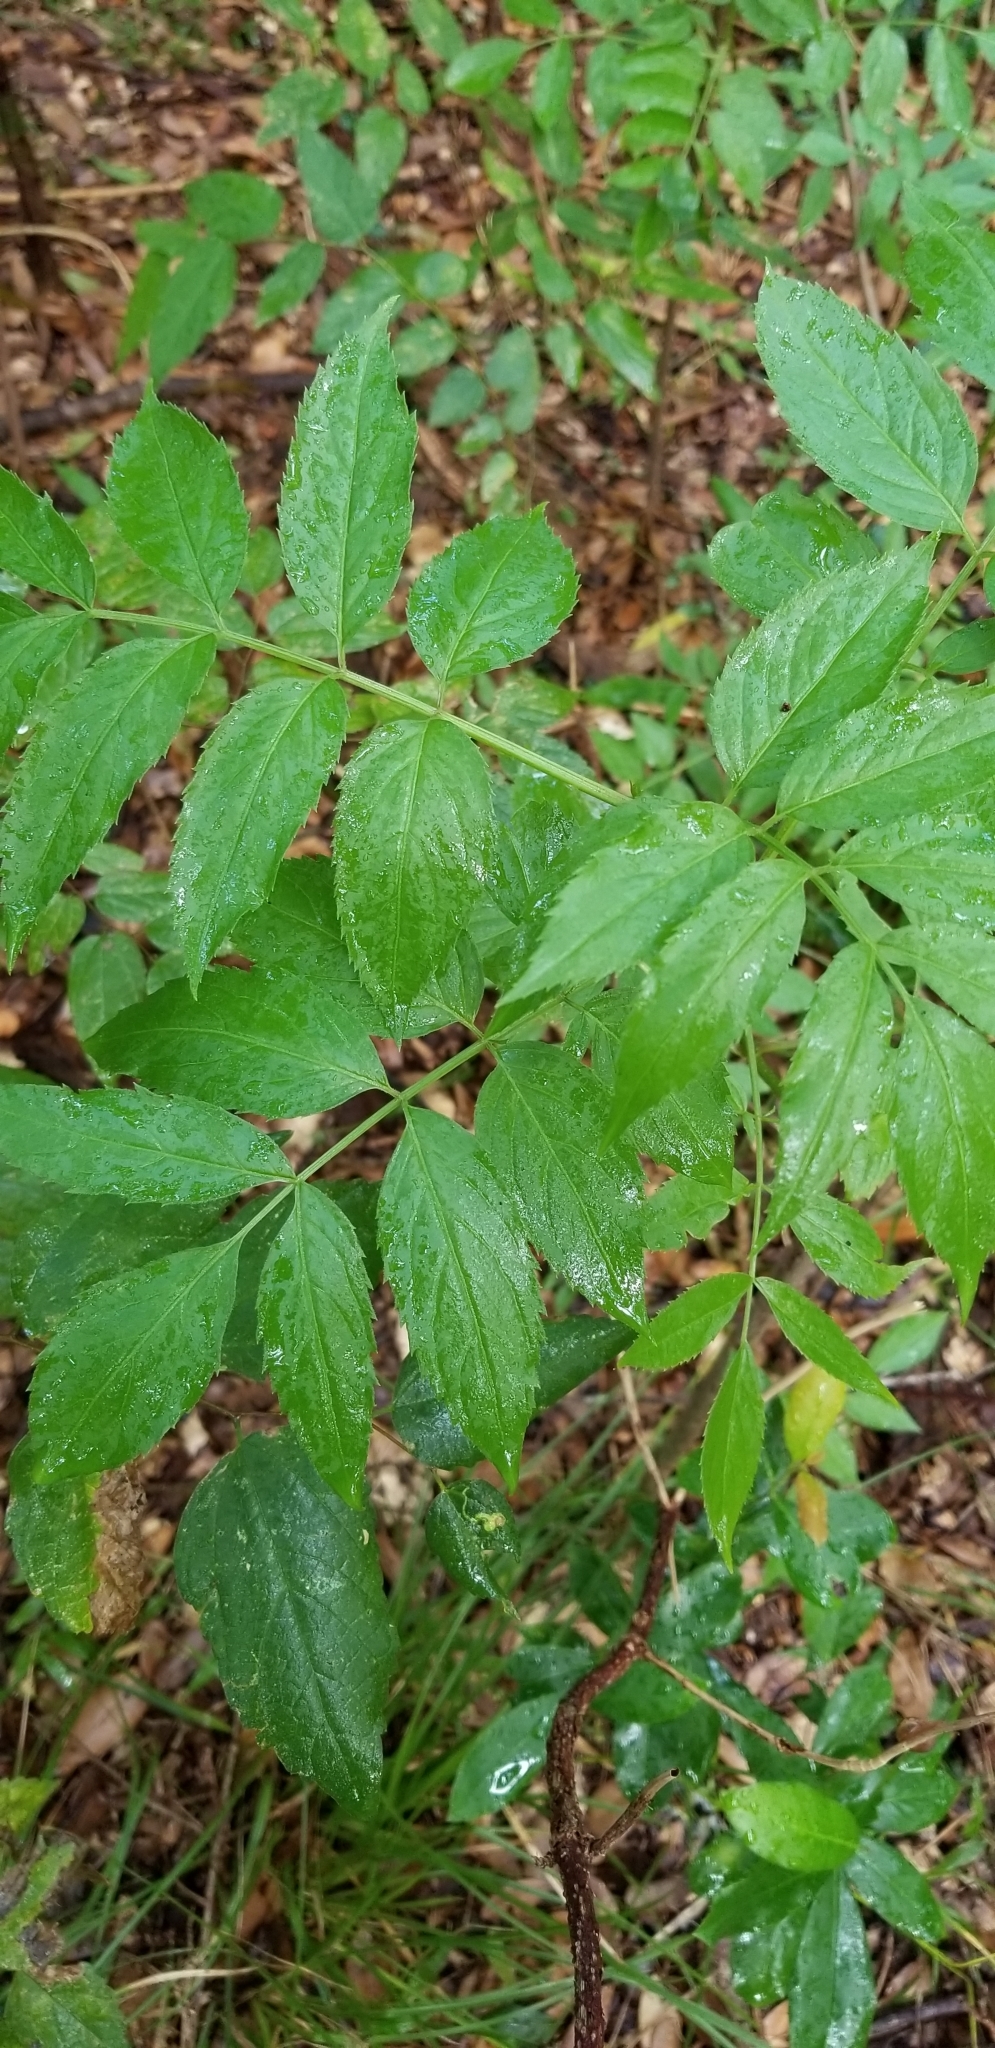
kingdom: Plantae
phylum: Tracheophyta
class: Magnoliopsida
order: Dipsacales
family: Viburnaceae
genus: Sambucus
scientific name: Sambucus canadensis
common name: American elder
